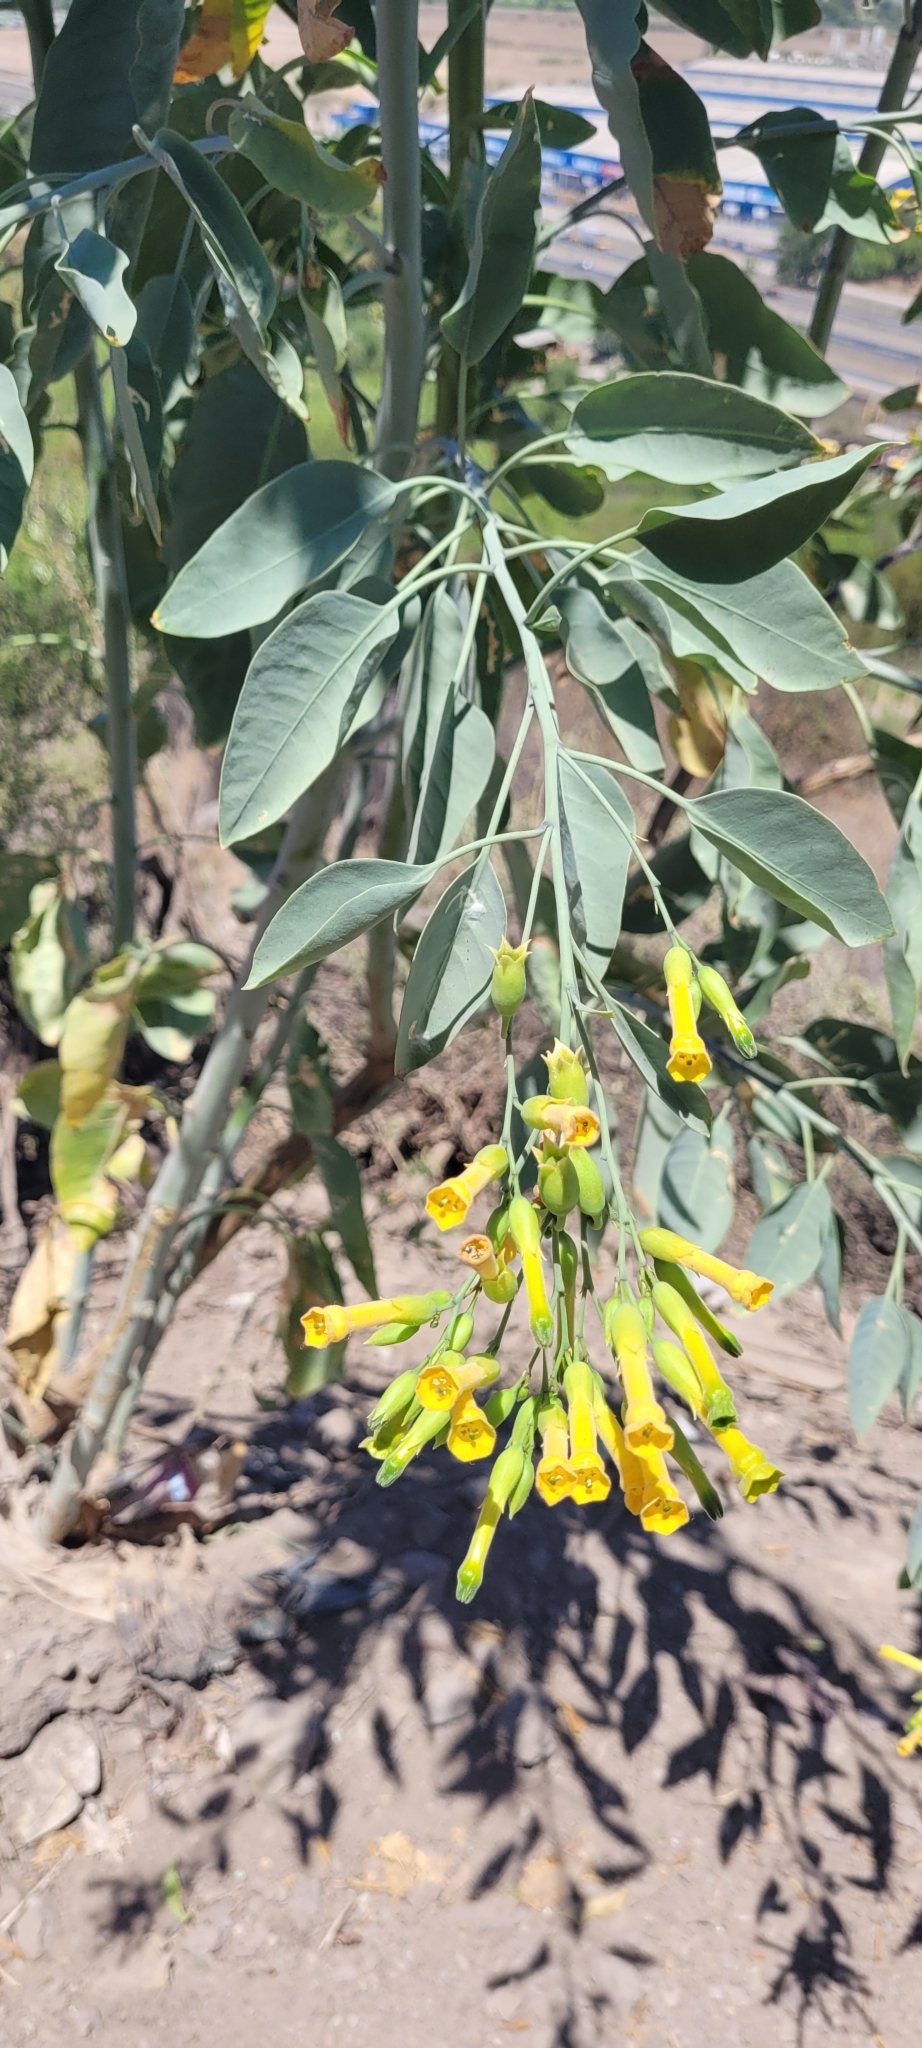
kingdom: Plantae
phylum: Tracheophyta
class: Magnoliopsida
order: Solanales
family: Solanaceae
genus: Nicotiana
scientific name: Nicotiana glauca
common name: Tree tobacco
